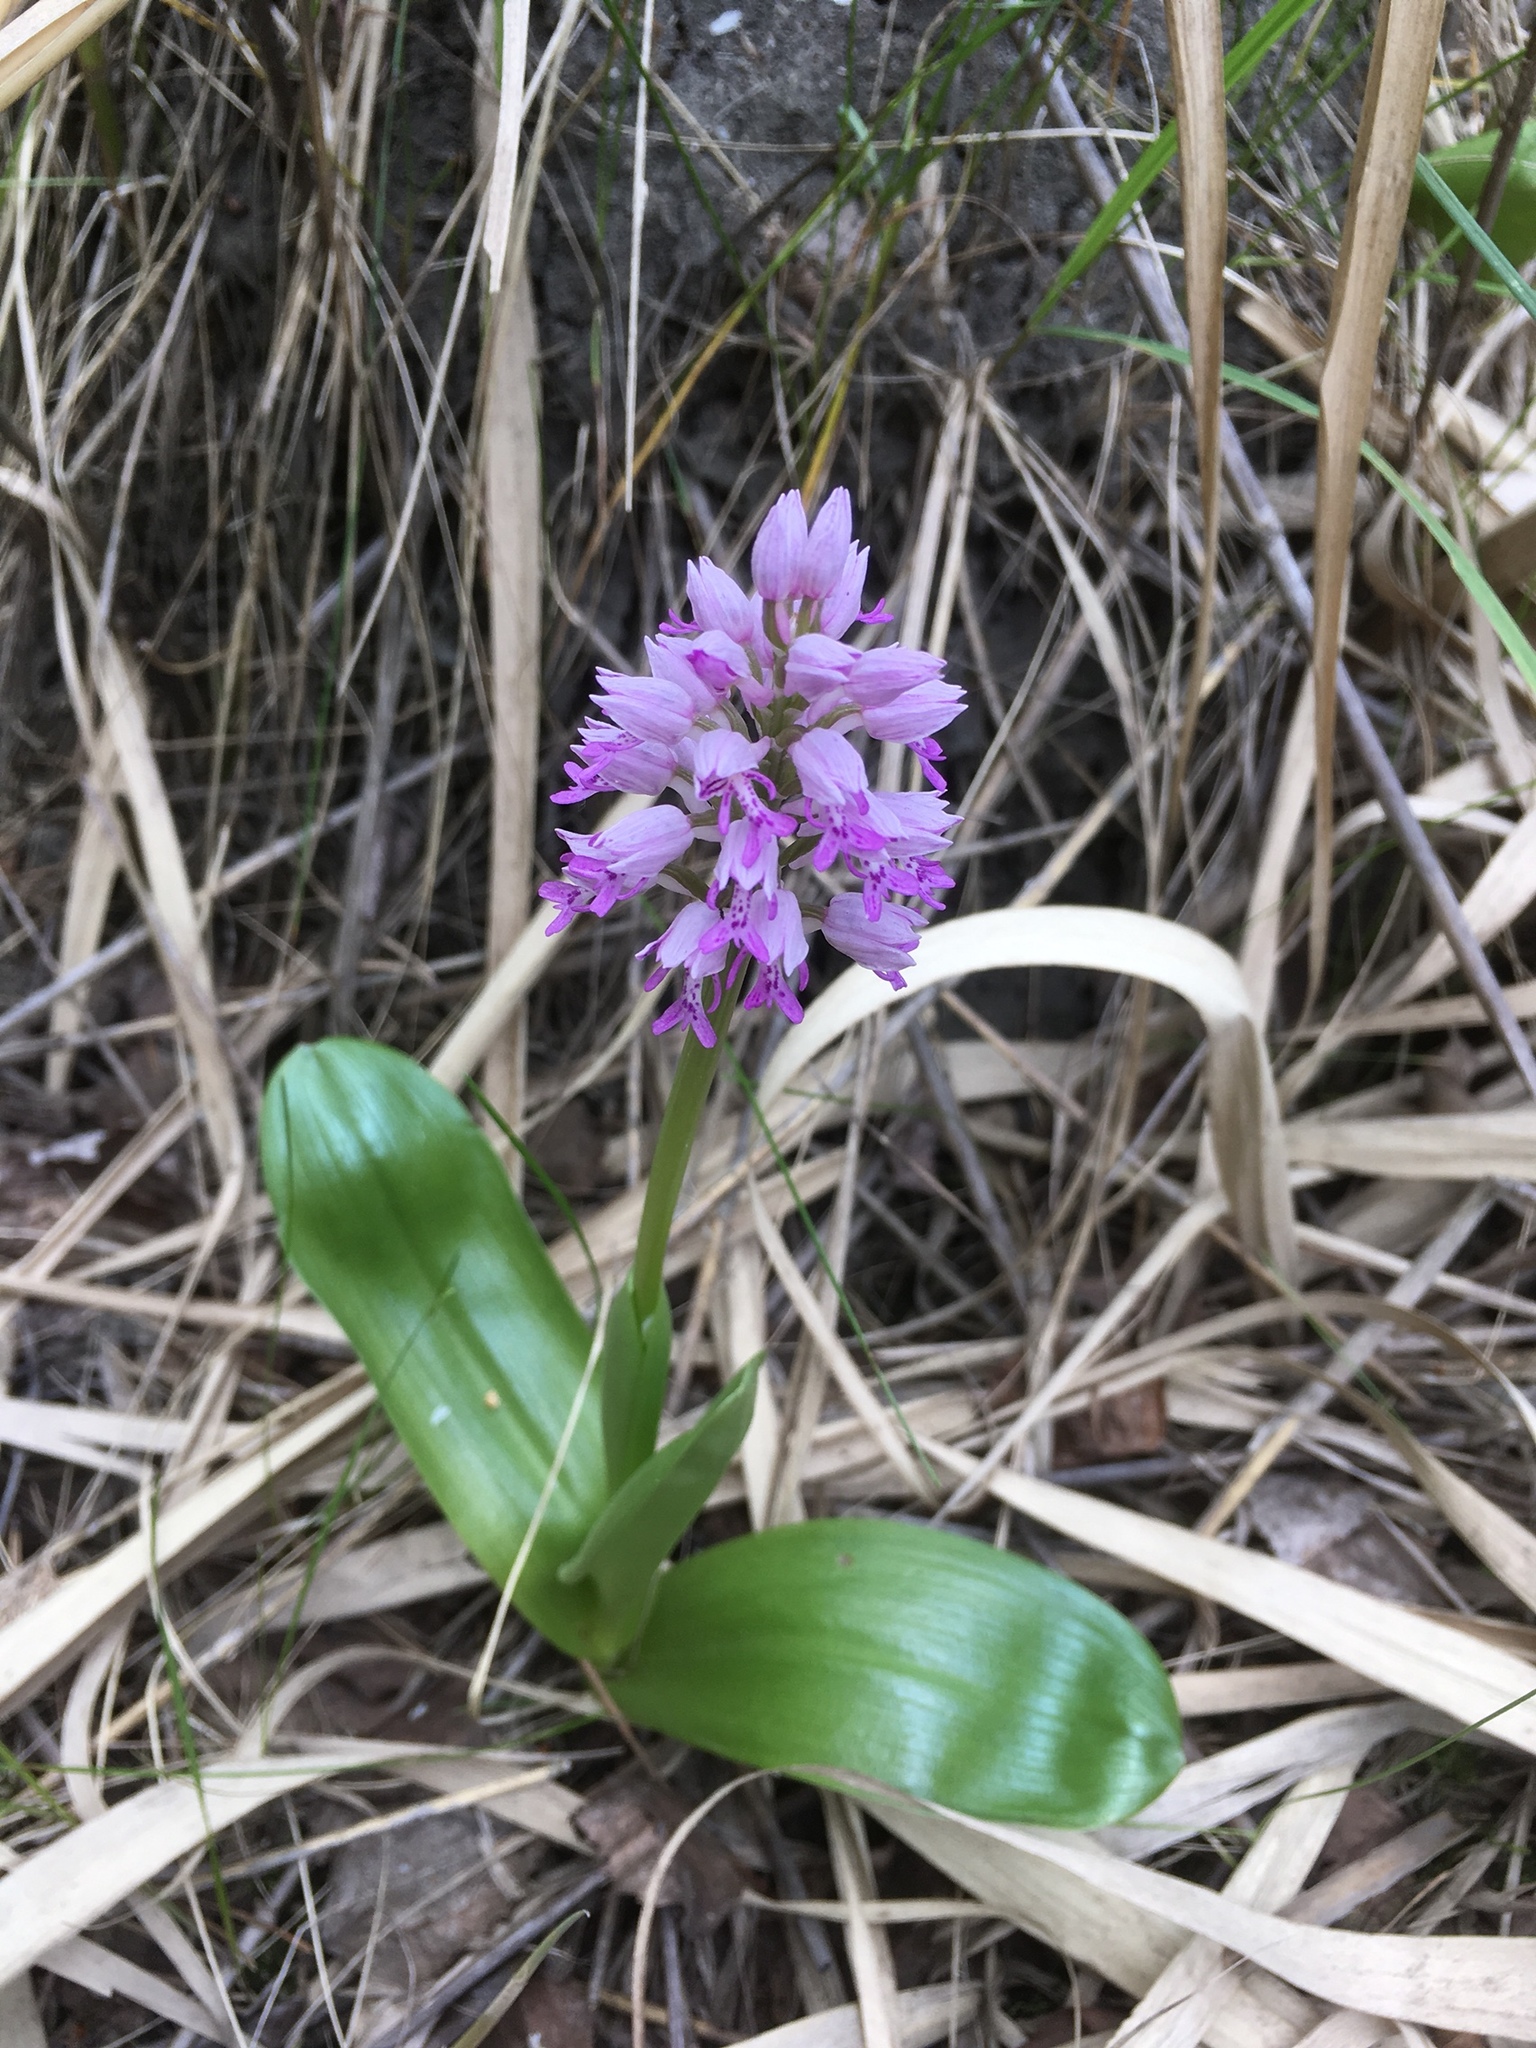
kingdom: Plantae
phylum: Tracheophyta
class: Liliopsida
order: Asparagales
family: Orchidaceae
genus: Orchis
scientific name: Orchis militaris
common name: Military orchid
